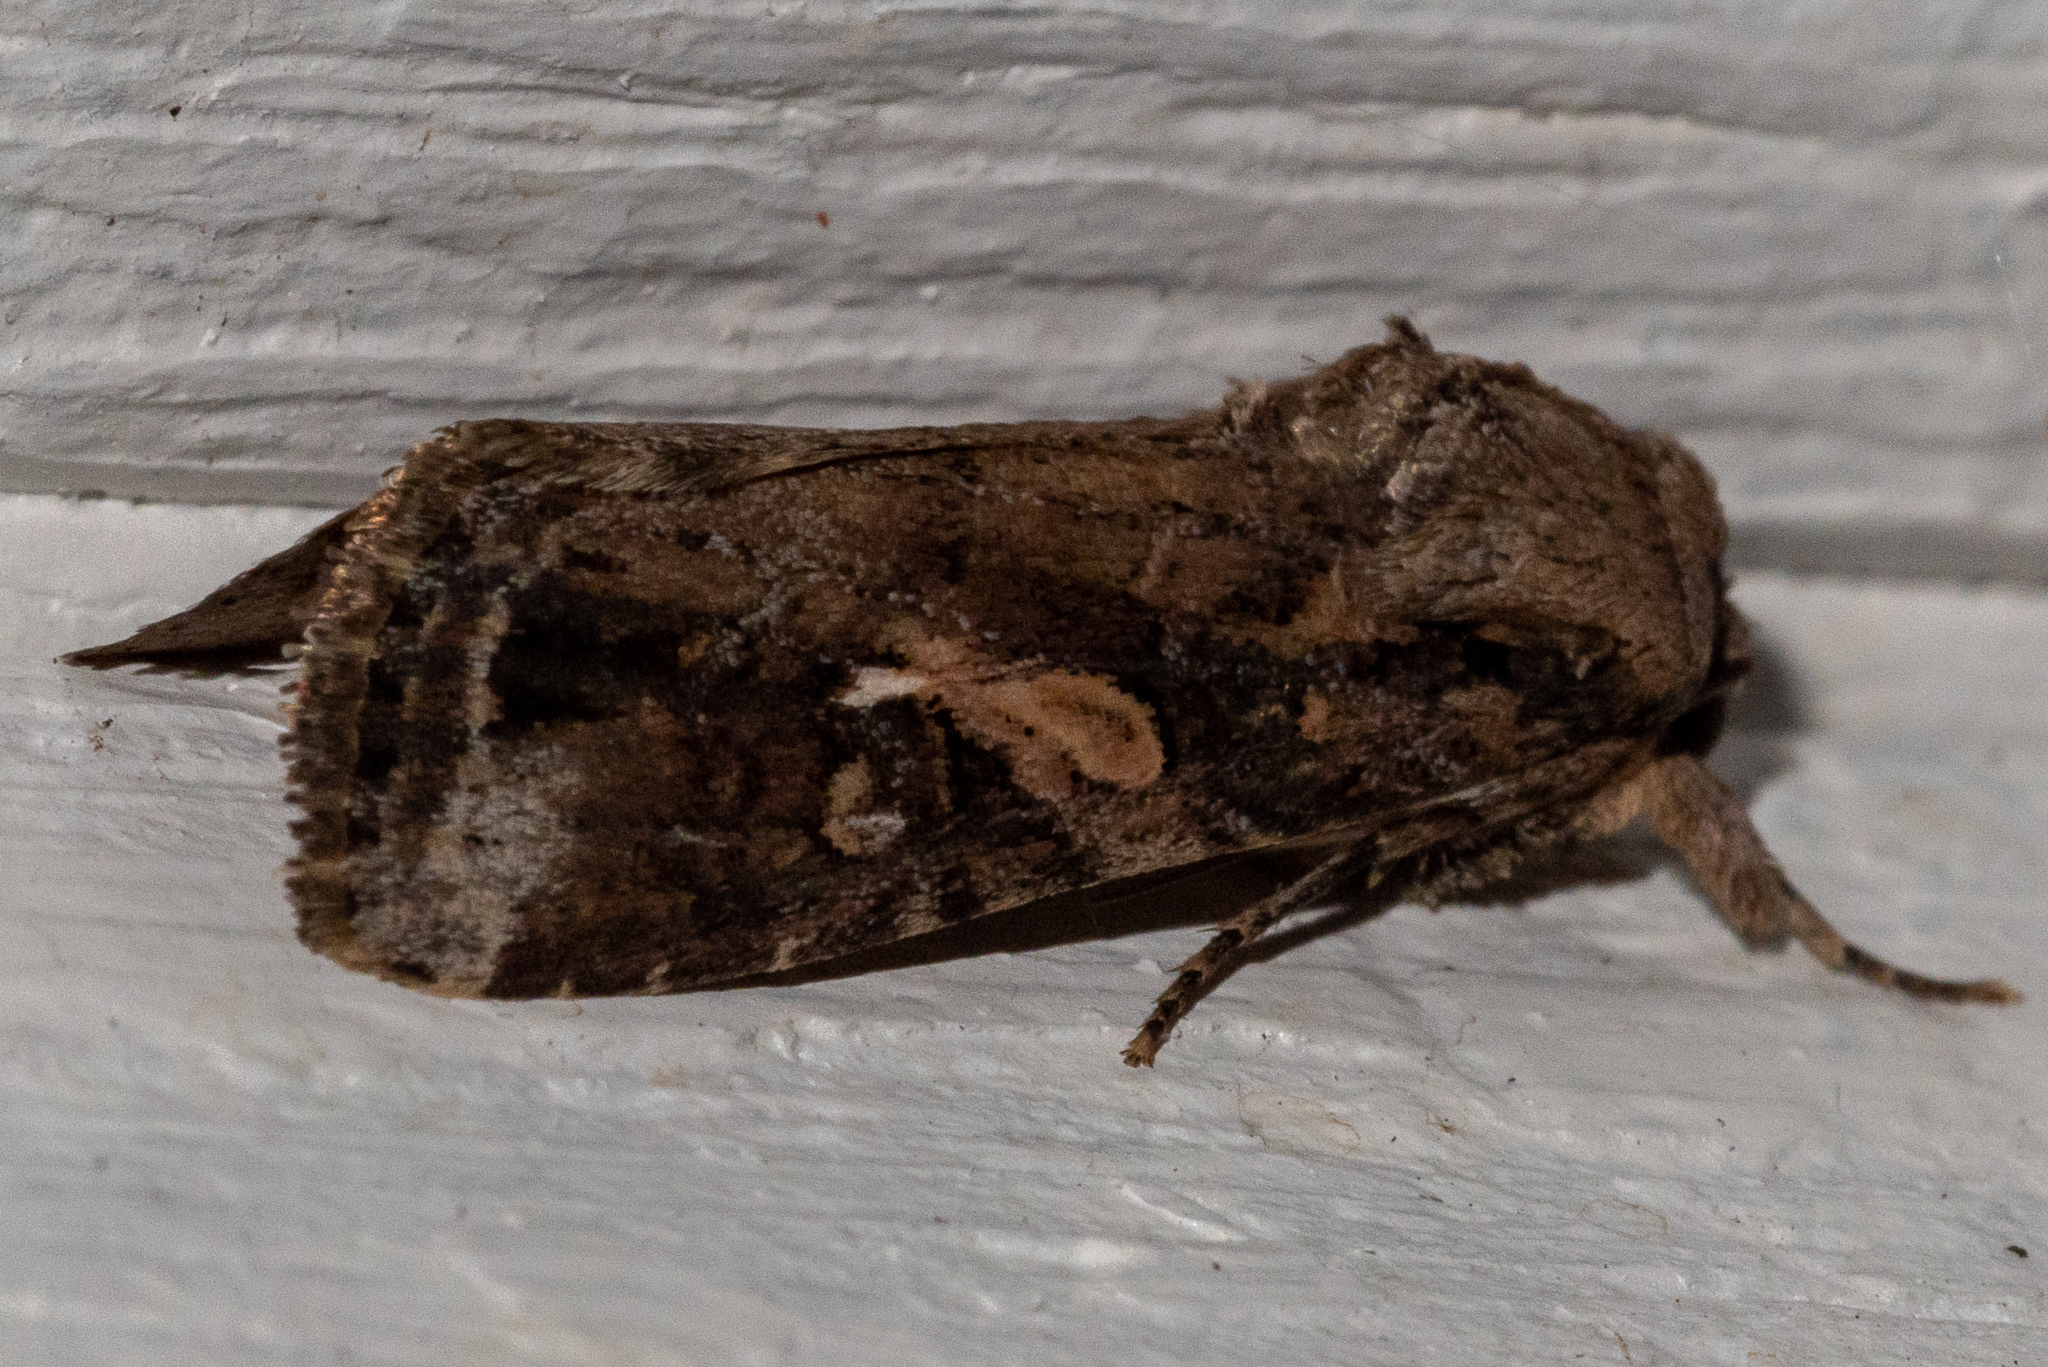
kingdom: Animalia
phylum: Arthropoda
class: Insecta
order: Lepidoptera
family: Noctuidae
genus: Spodoptera
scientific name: Spodoptera frugiperda
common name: Fall armyworm
